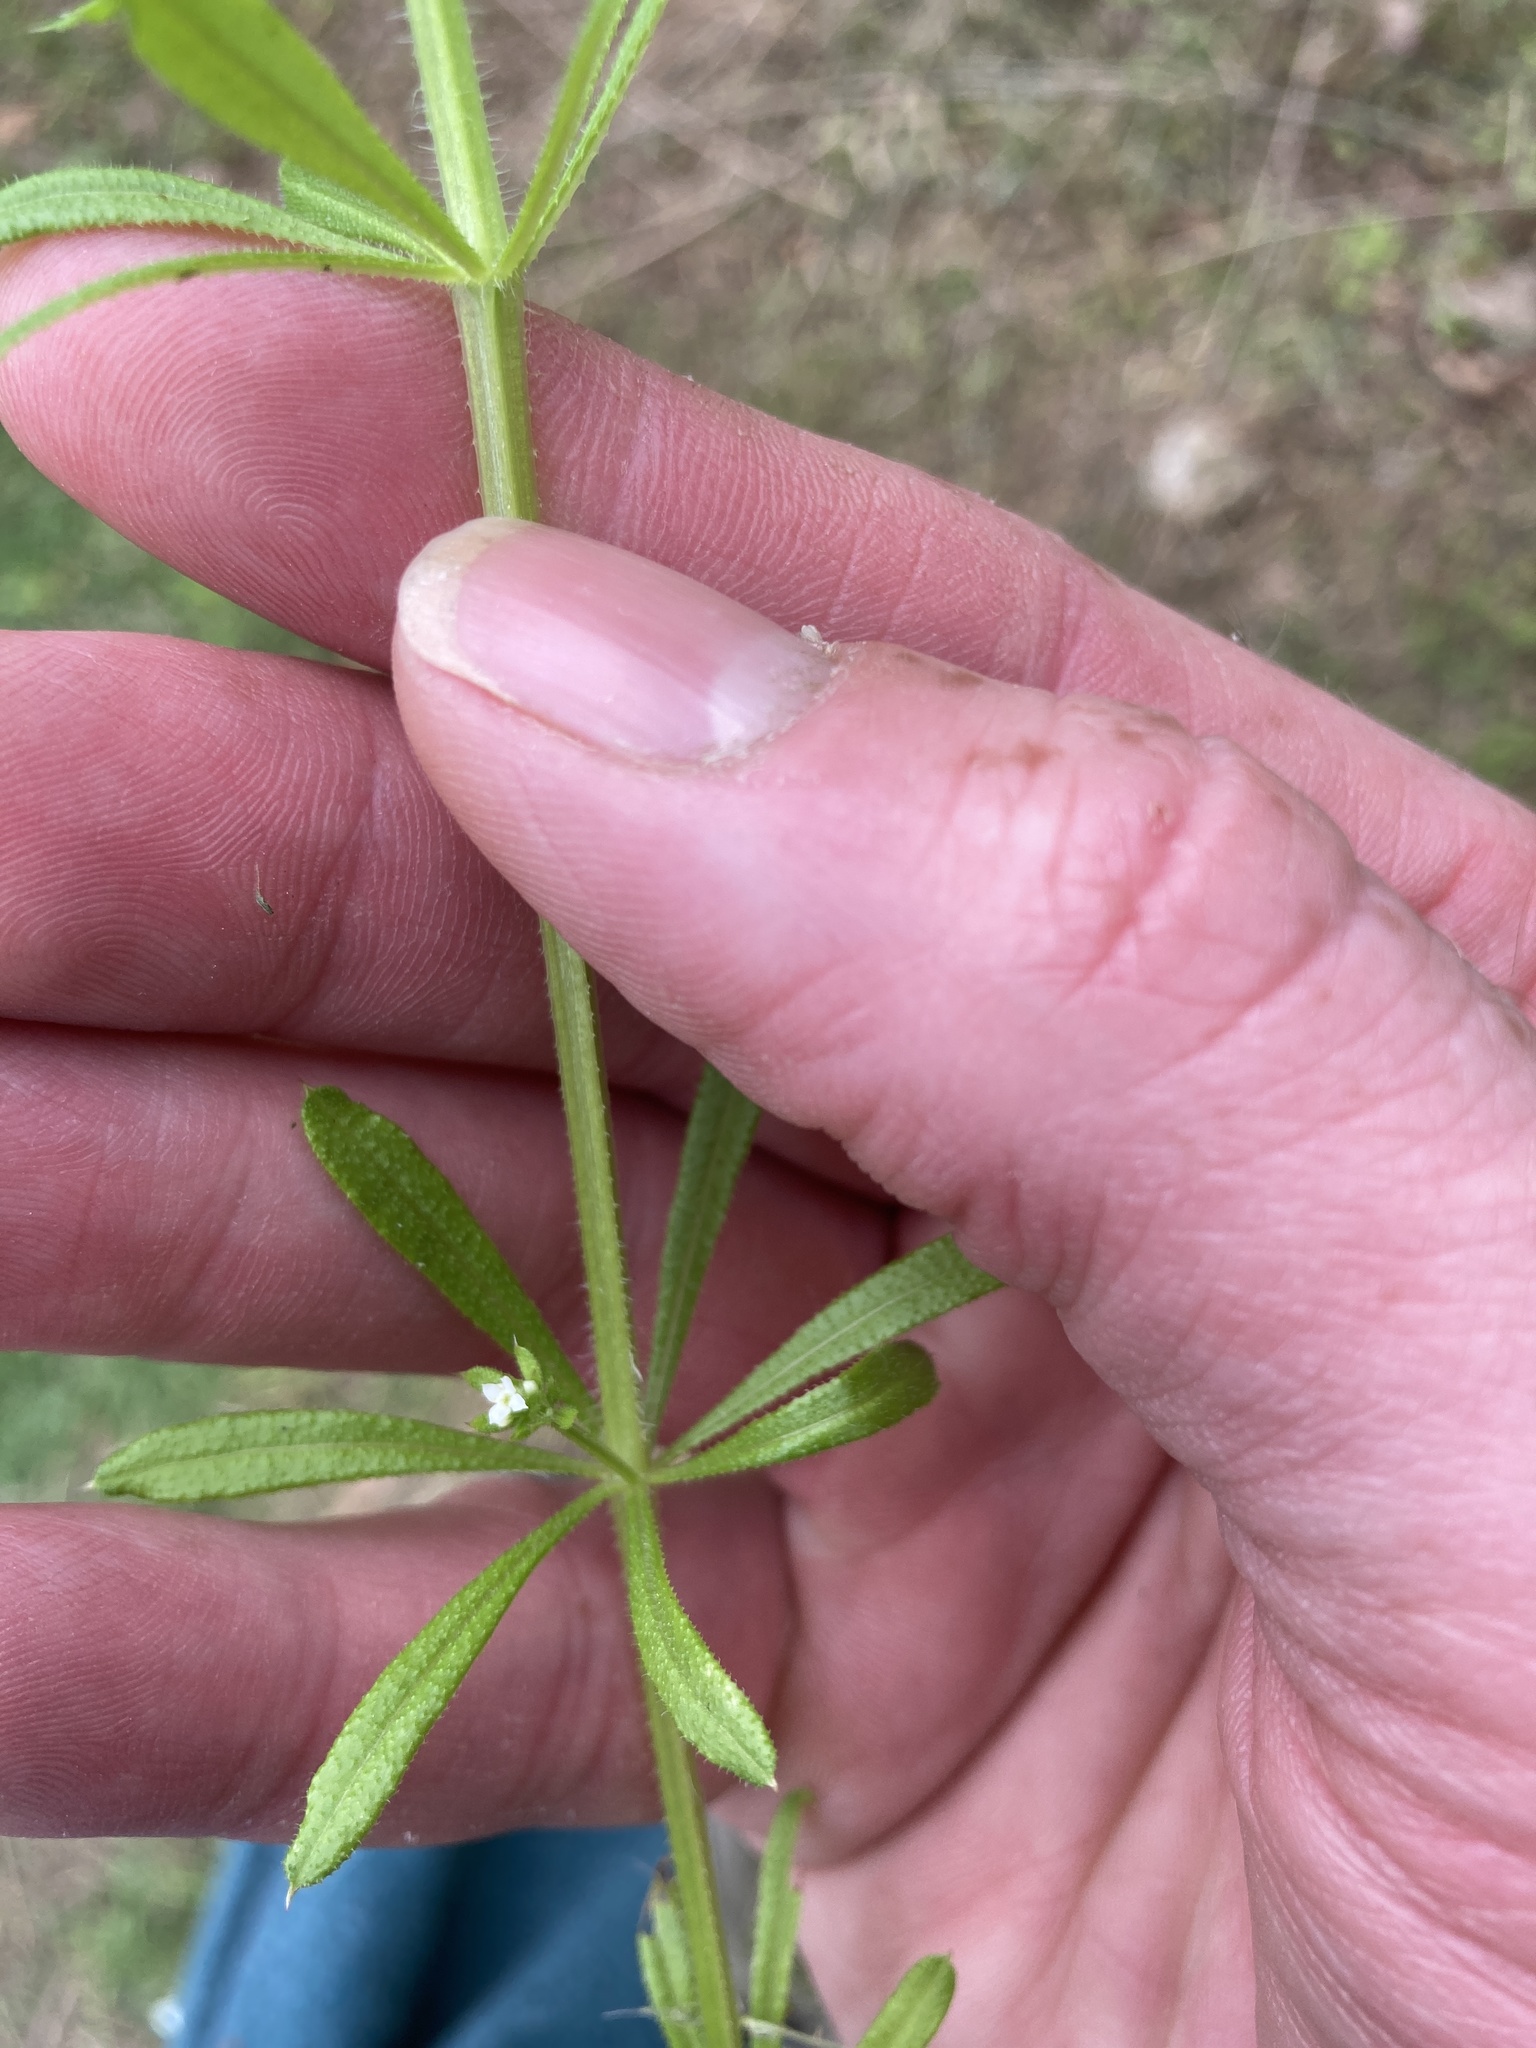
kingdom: Plantae
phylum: Tracheophyta
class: Magnoliopsida
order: Gentianales
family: Rubiaceae
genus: Galium
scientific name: Galium aparine
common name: Cleavers
